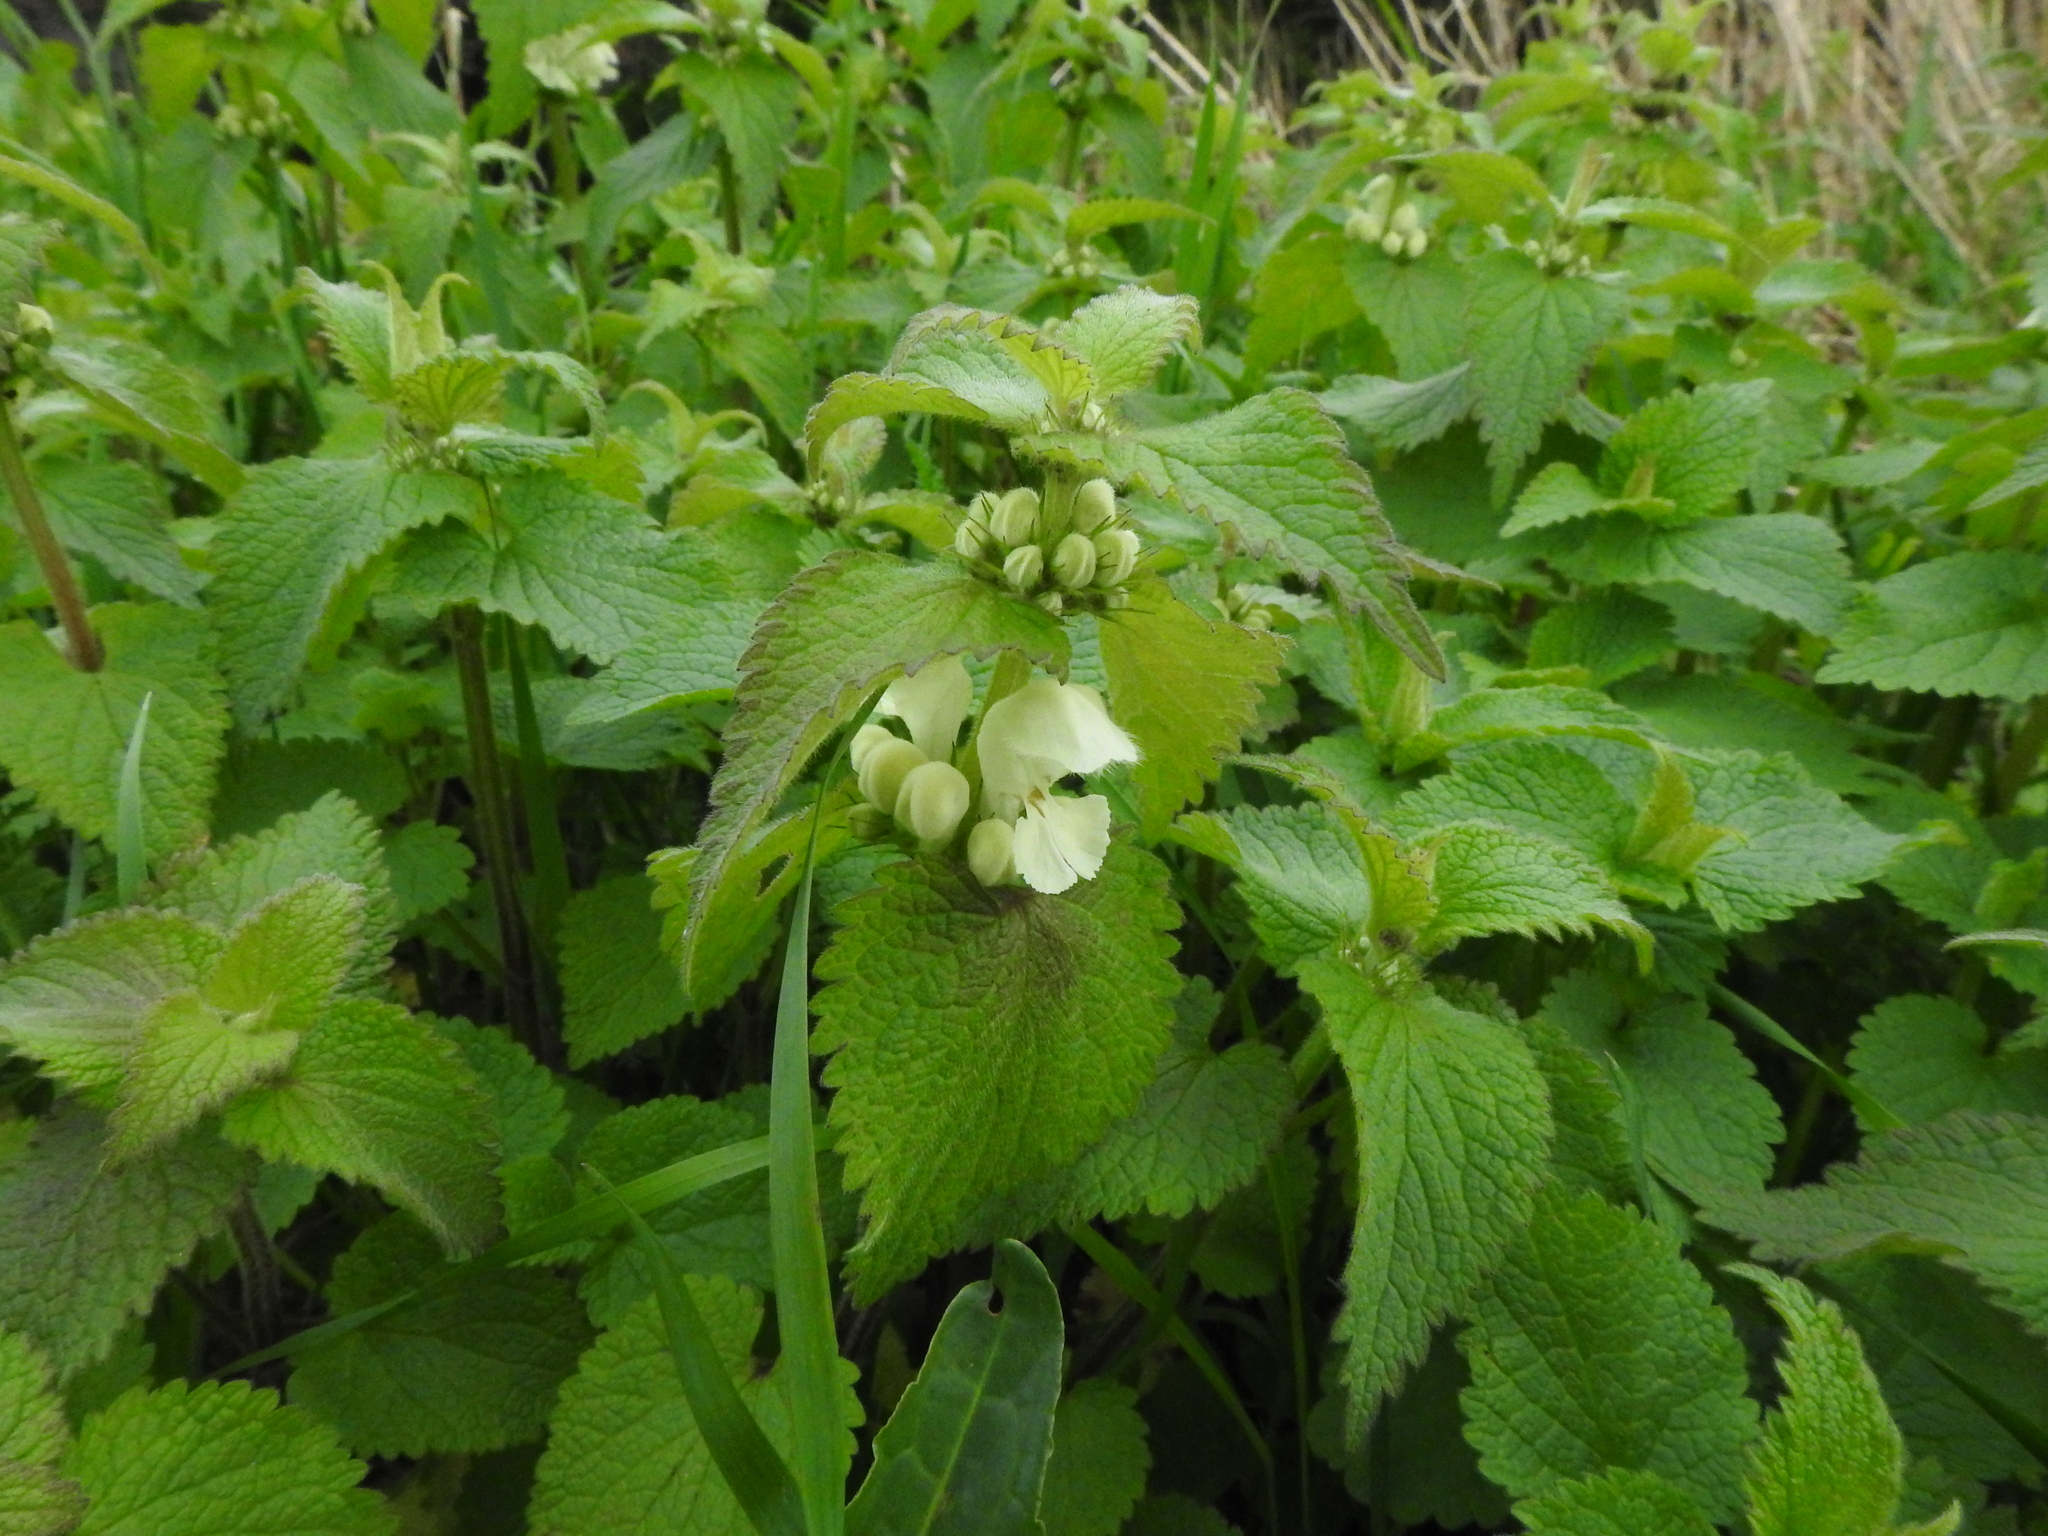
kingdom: Plantae
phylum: Tracheophyta
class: Magnoliopsida
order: Lamiales
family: Lamiaceae
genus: Lamium
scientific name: Lamium album
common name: White dead-nettle
